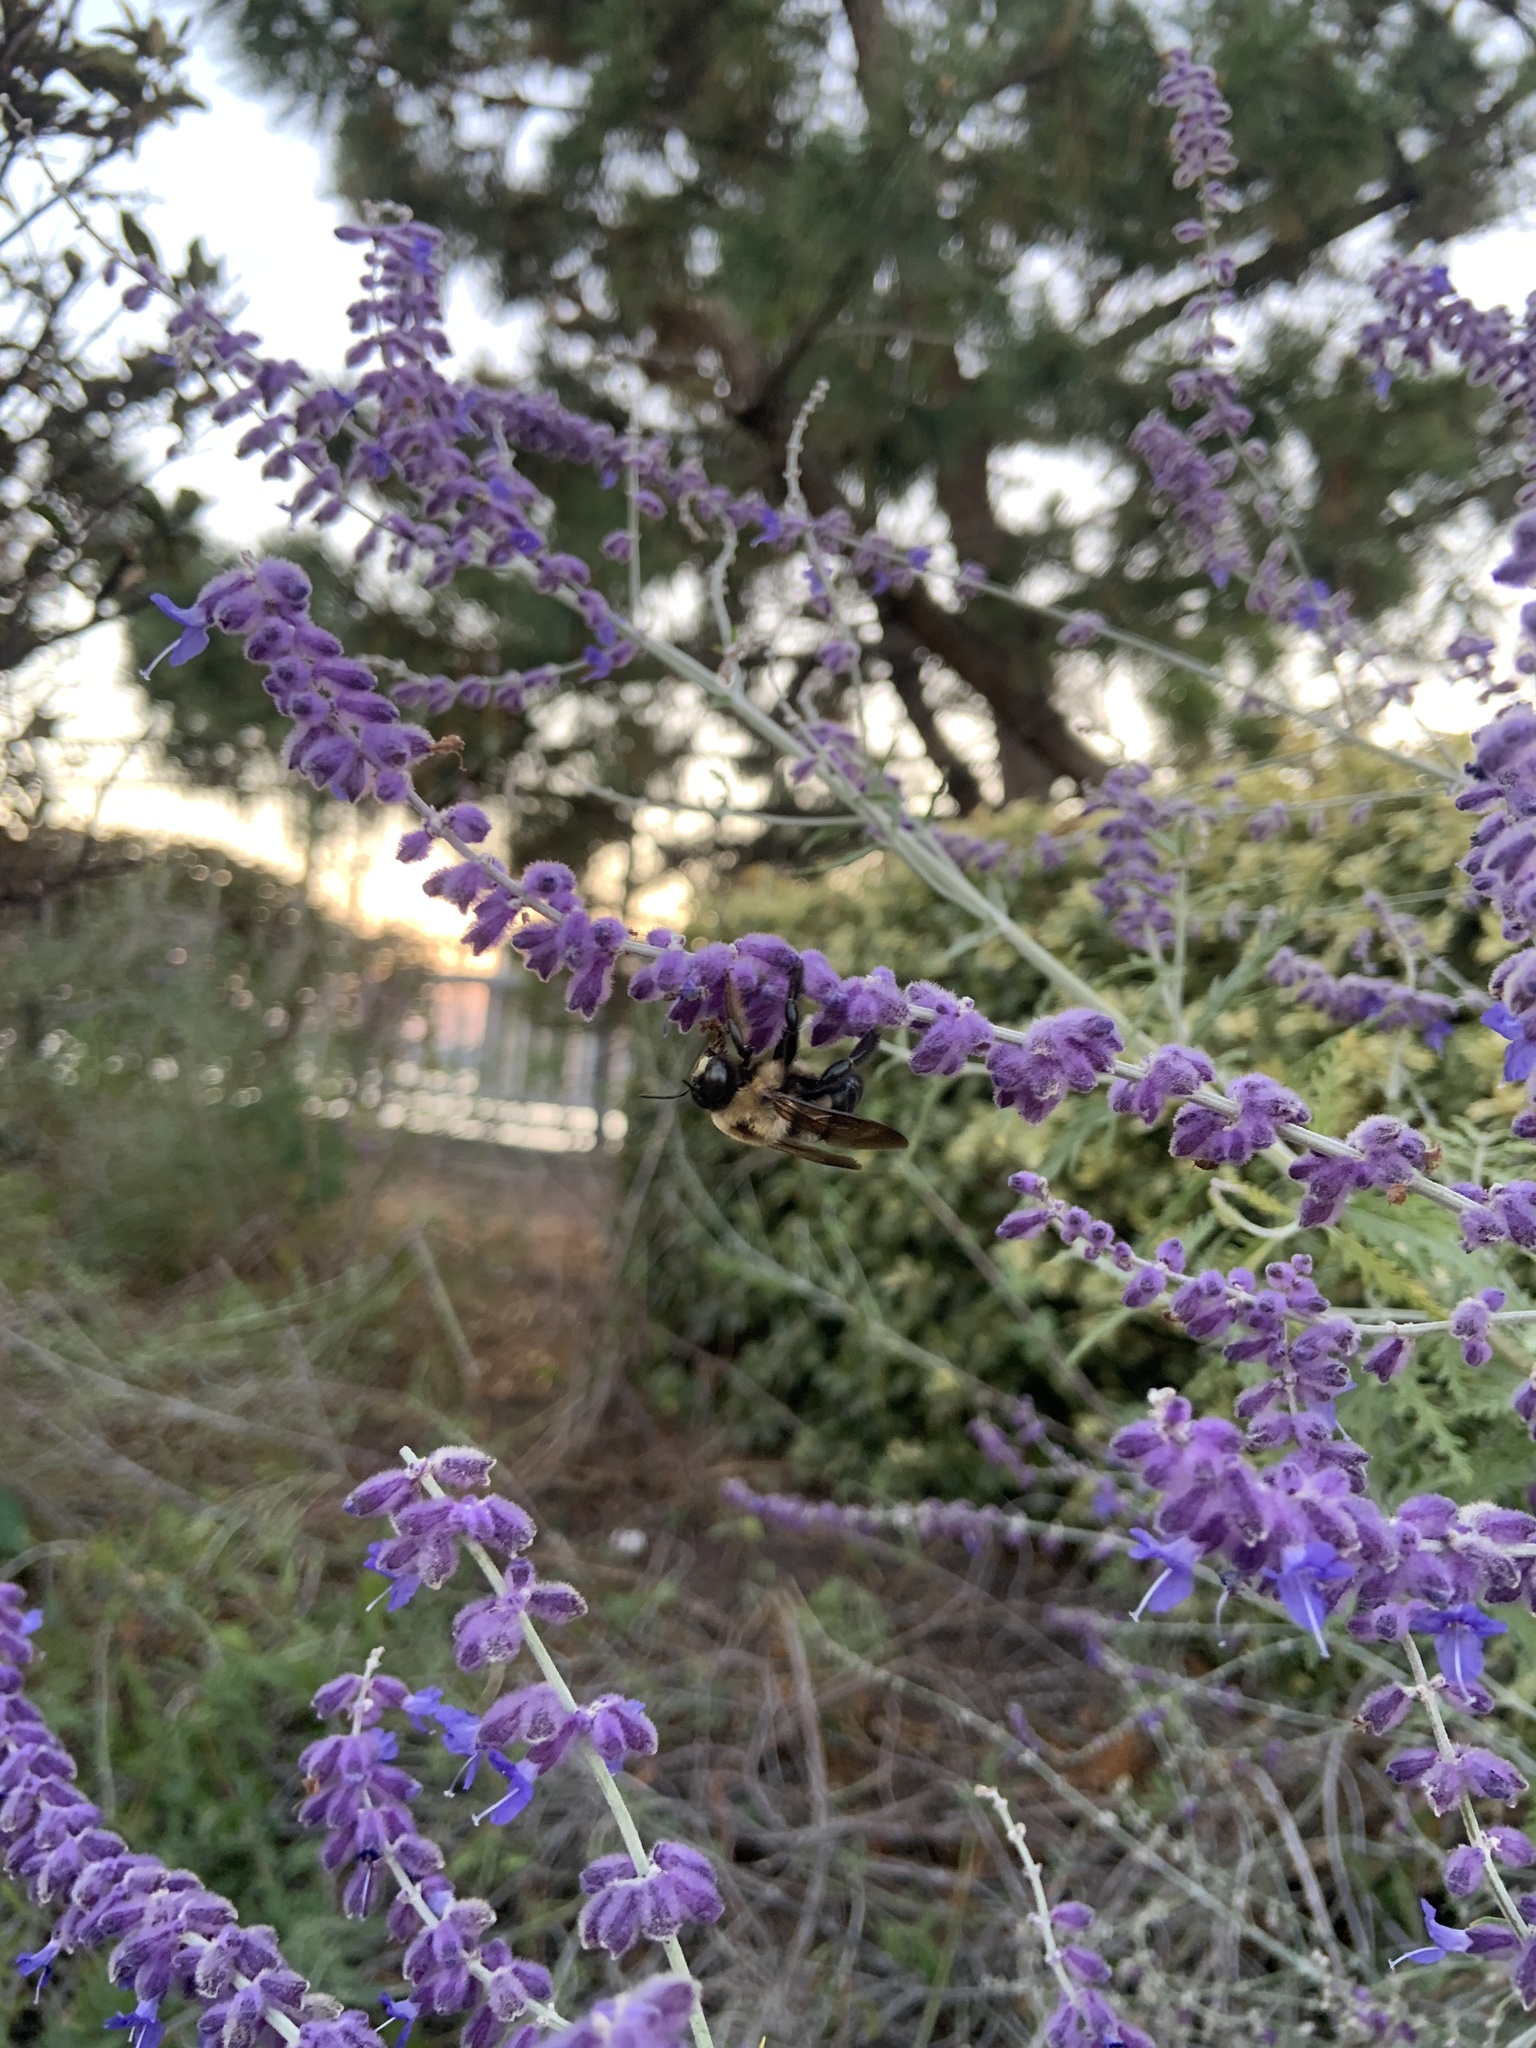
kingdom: Animalia
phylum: Arthropoda
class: Insecta
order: Hymenoptera
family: Apidae
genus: Xylocopa
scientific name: Xylocopa virginica
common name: Carpenter bee
